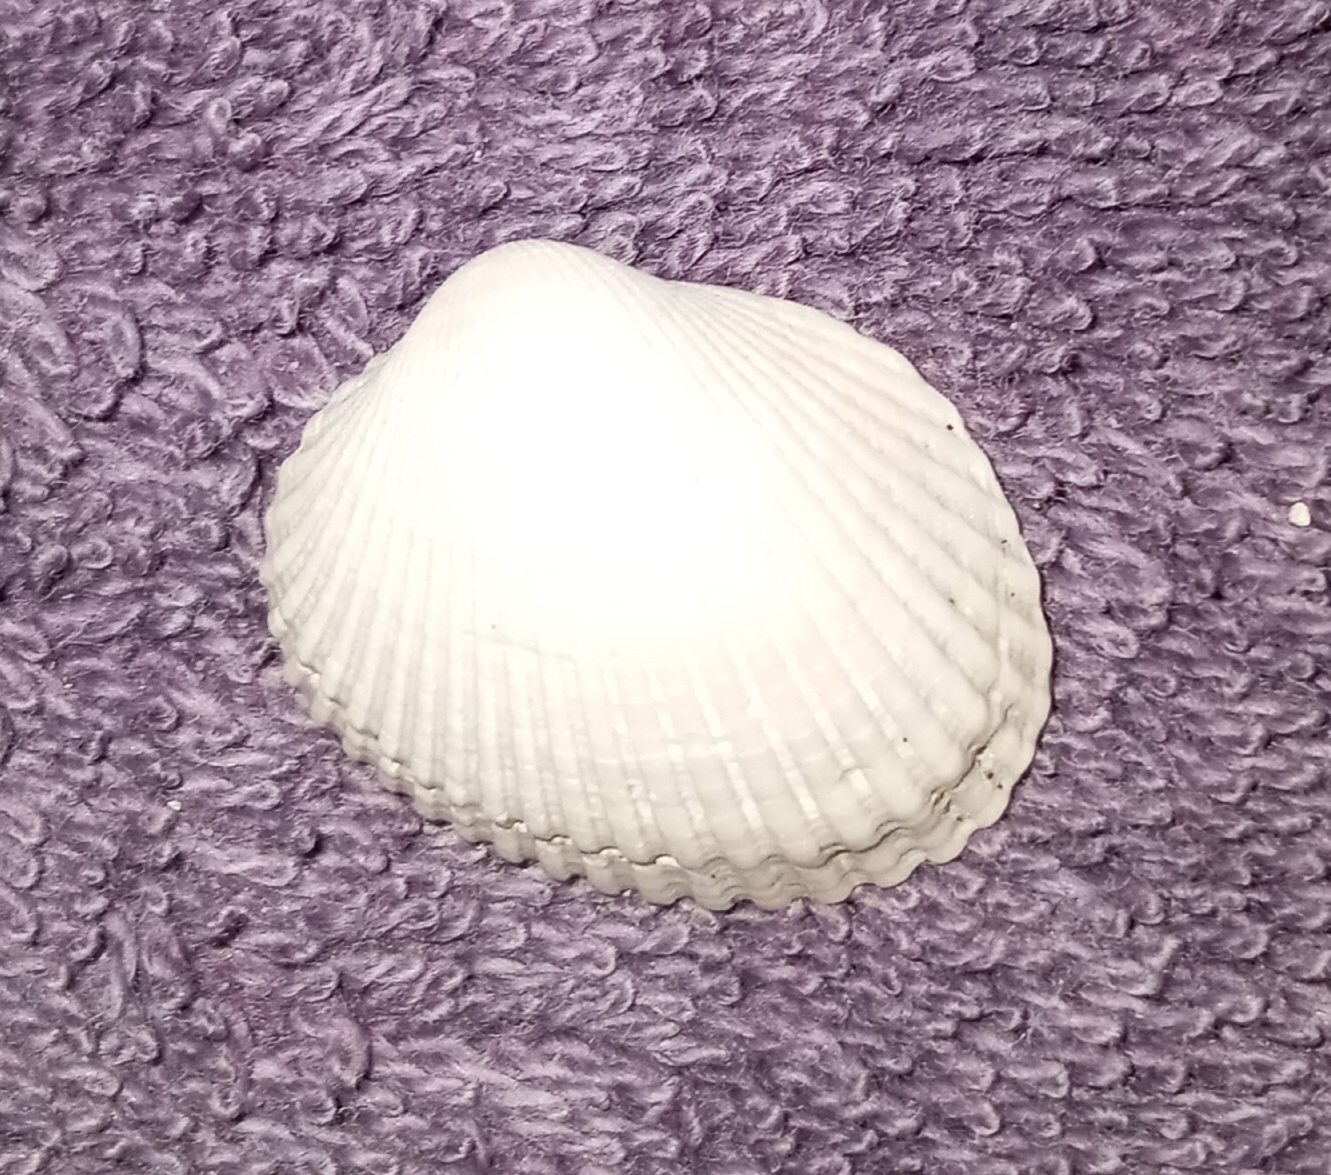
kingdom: Animalia
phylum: Mollusca
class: Bivalvia
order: Arcida
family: Arcidae
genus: Lunarca
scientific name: Lunarca ovalis
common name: Blood ark
